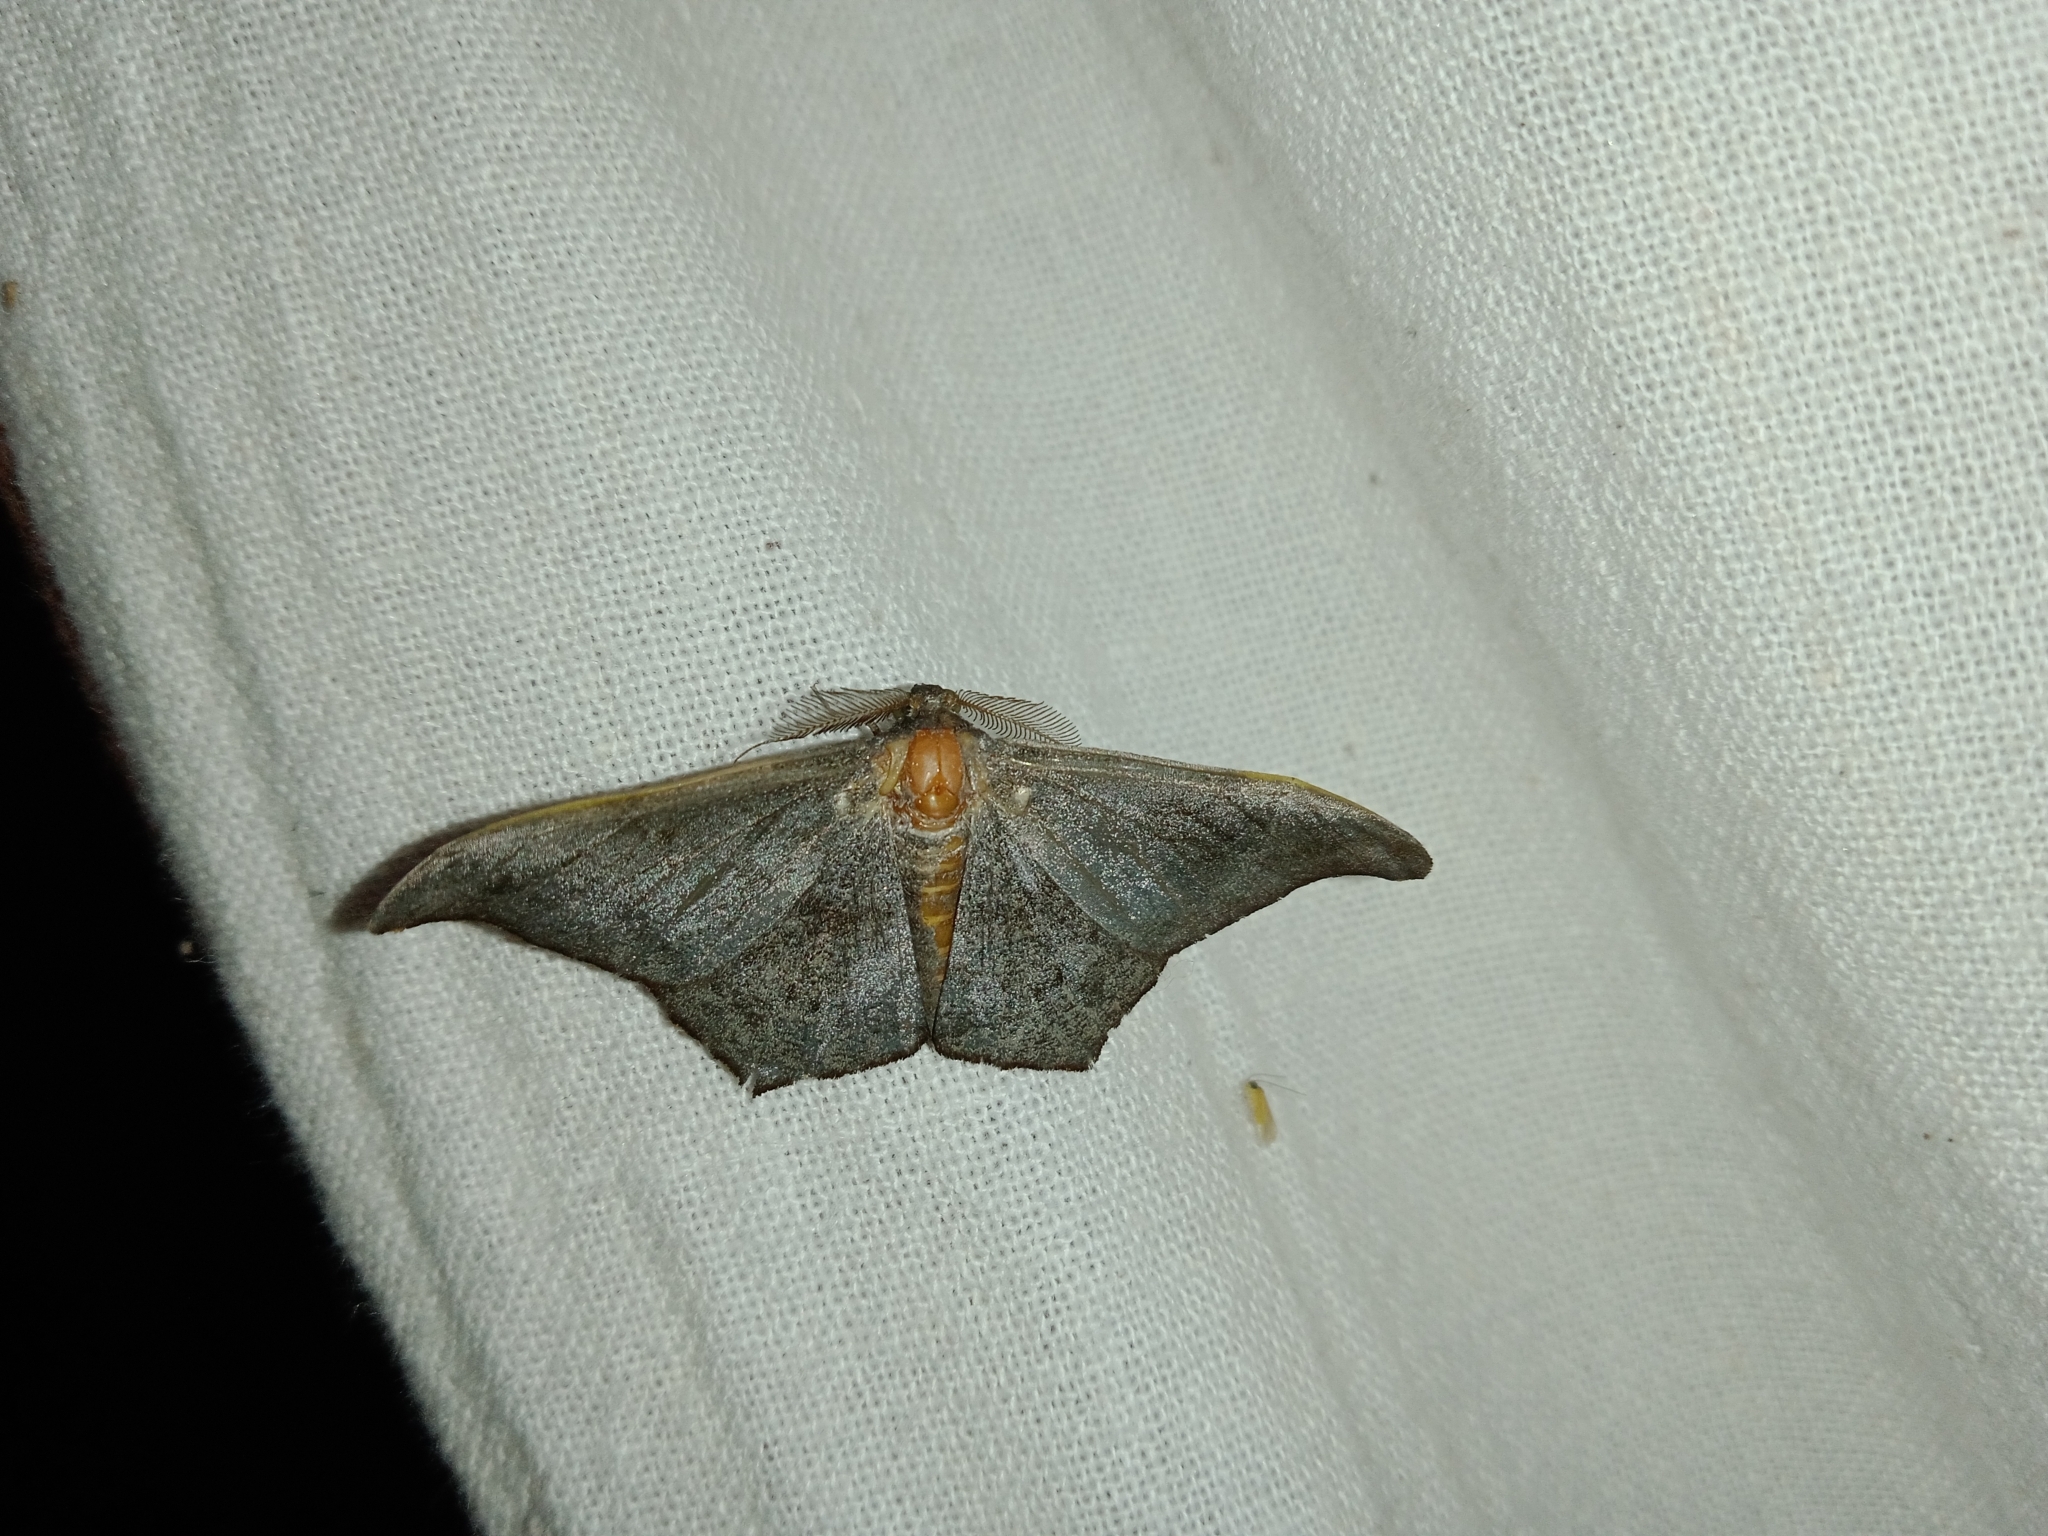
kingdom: Animalia
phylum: Arthropoda
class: Insecta
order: Lepidoptera
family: Geometridae
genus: Hyposidra
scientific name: Hyposidra talaca
